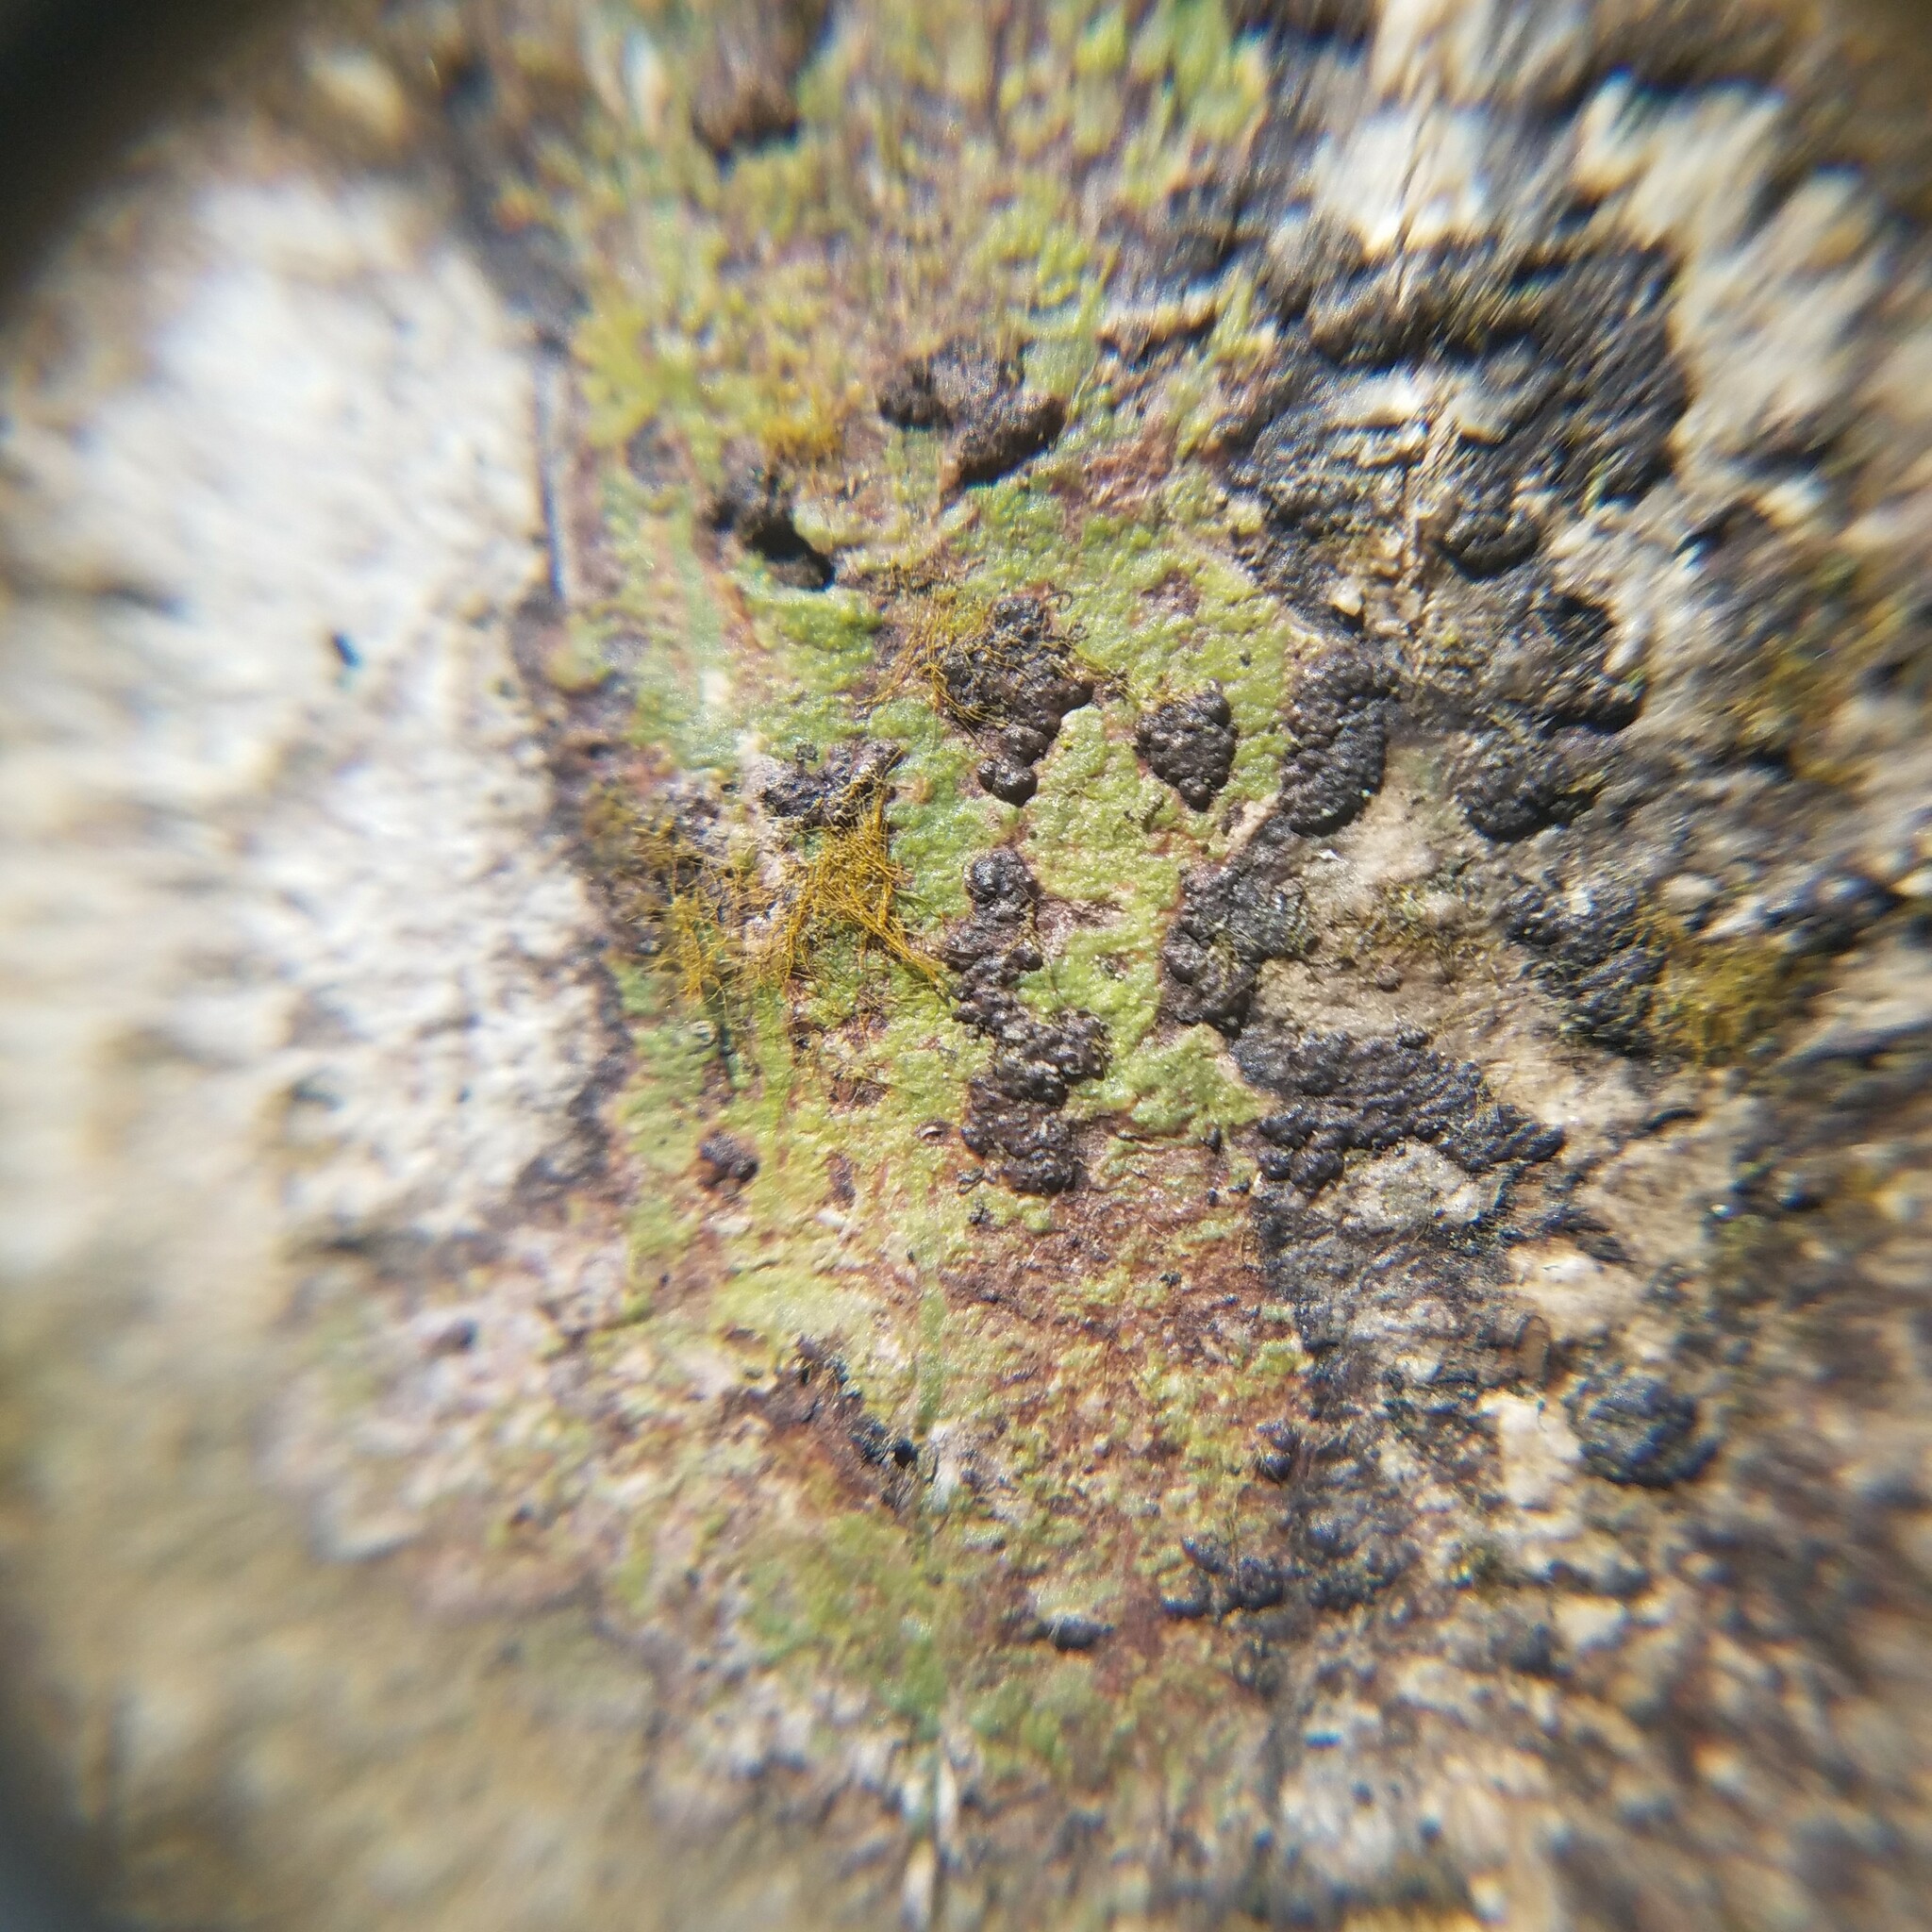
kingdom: Fungi
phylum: Ascomycota
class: Dothideomycetes
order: Trypetheliales
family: Trypetheliaceae
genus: Bathelium
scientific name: Bathelium carolinianum
